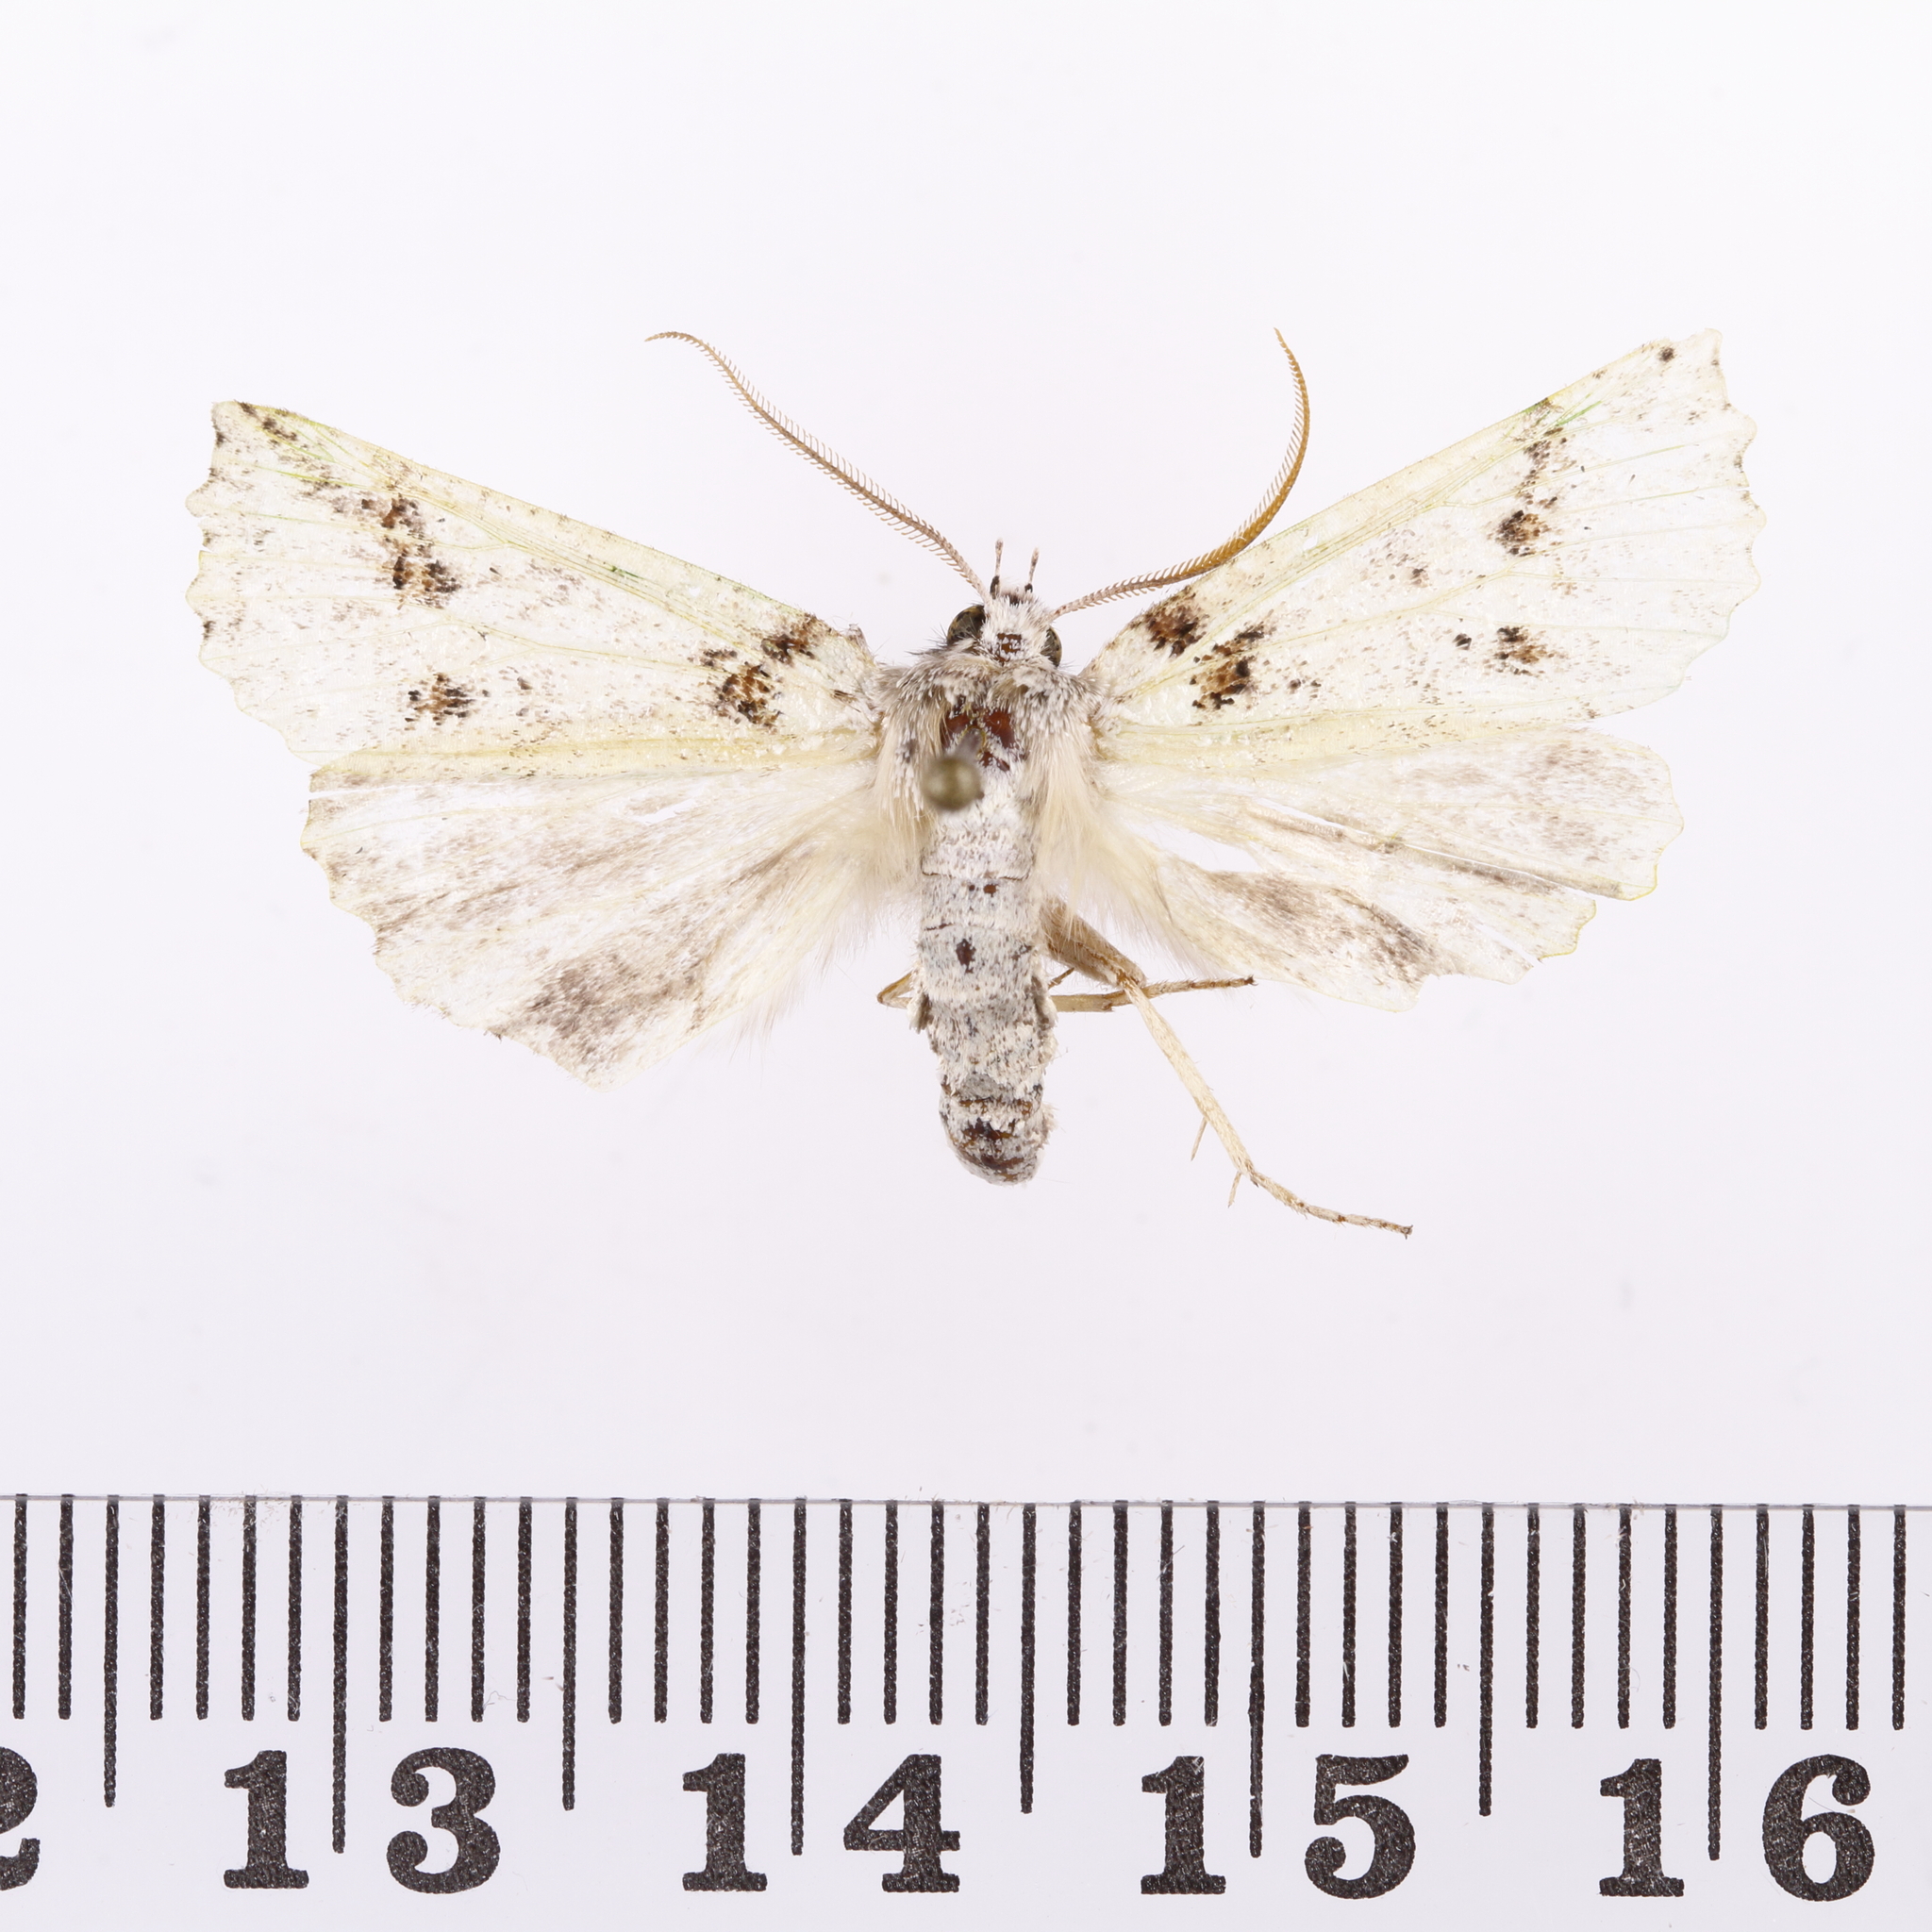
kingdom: Animalia
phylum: Arthropoda
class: Insecta
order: Lepidoptera
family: Geometridae
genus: Declana
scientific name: Declana floccosa
